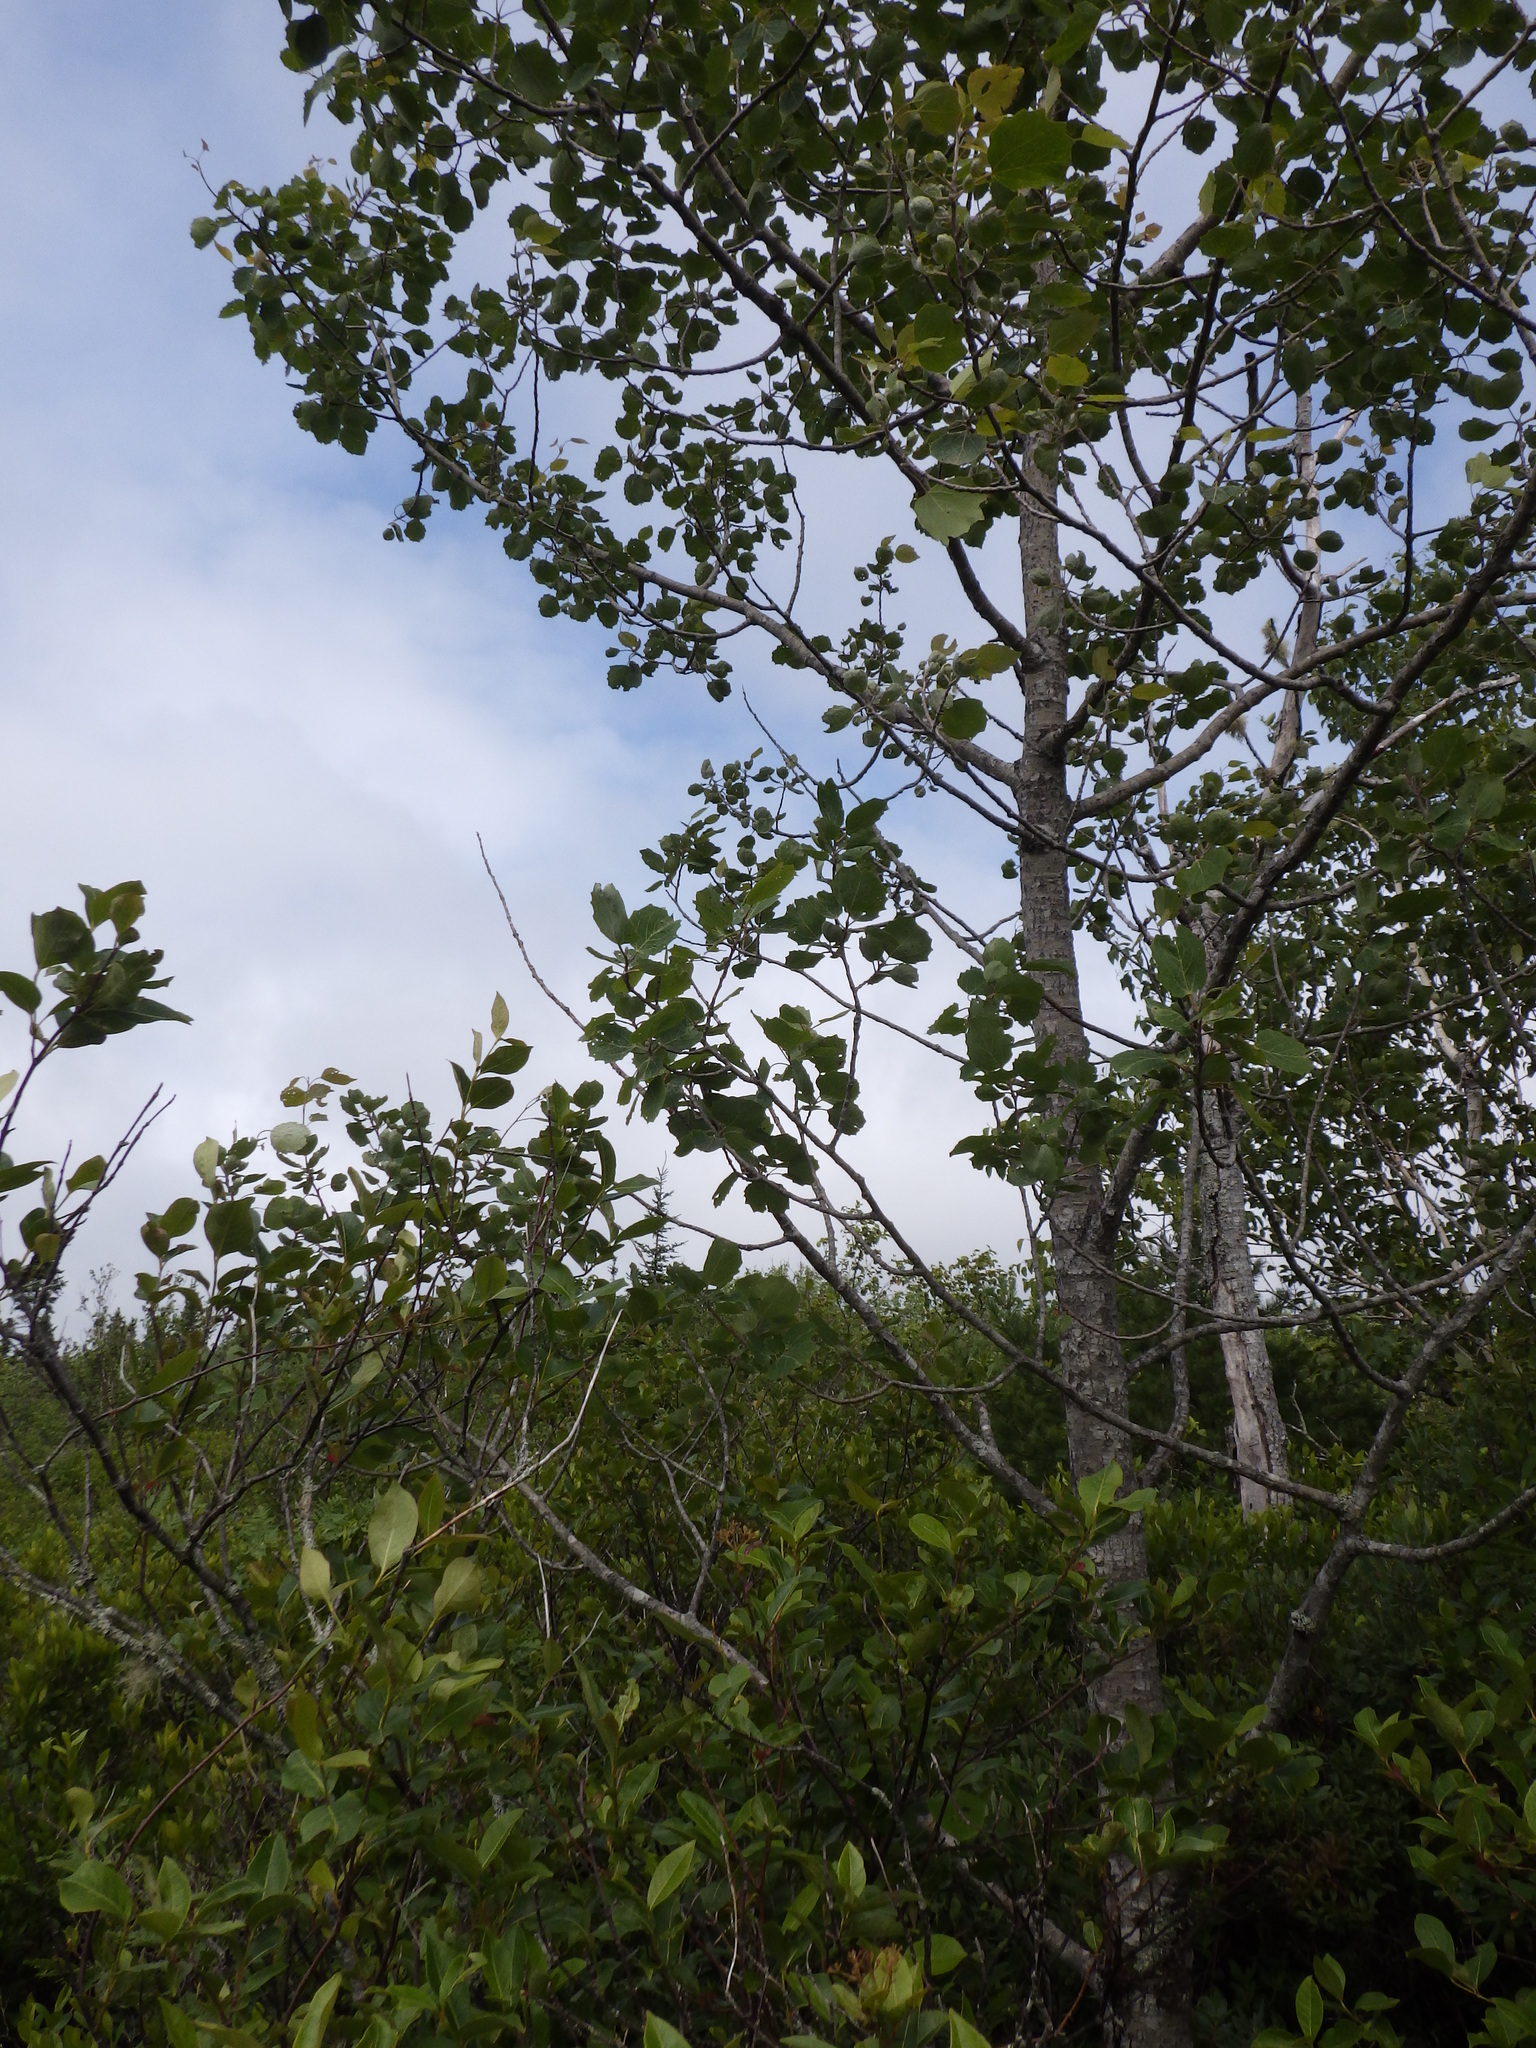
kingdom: Plantae
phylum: Tracheophyta
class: Magnoliopsida
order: Malpighiales
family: Salicaceae
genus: Populus
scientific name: Populus grandidentata
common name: Bigtooth aspen
